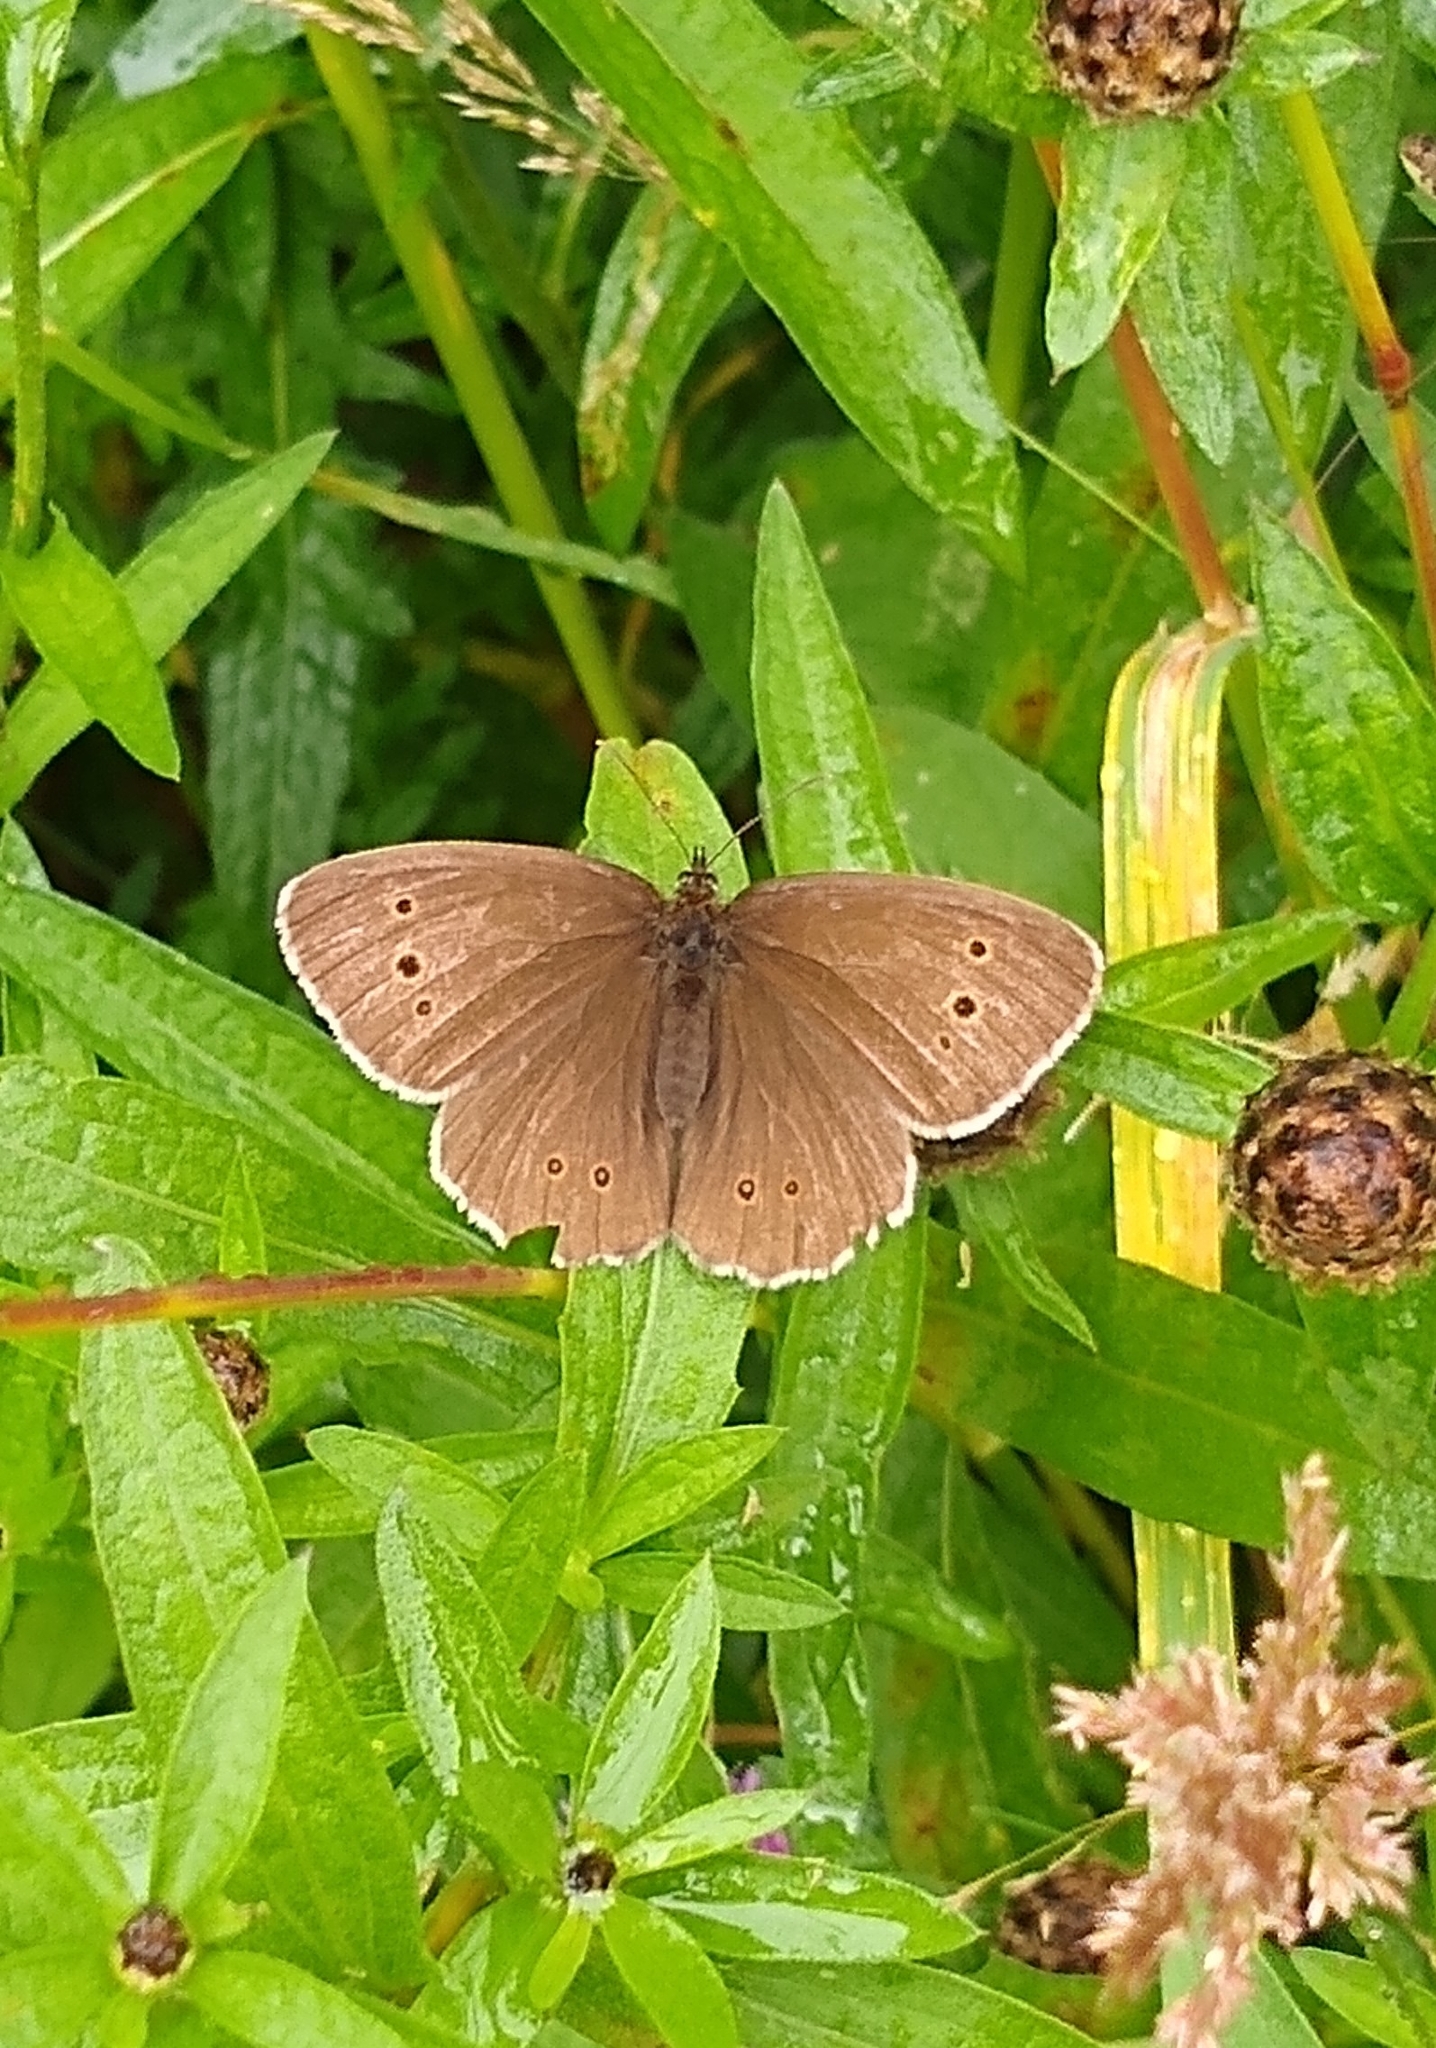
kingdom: Animalia
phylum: Arthropoda
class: Insecta
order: Lepidoptera
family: Nymphalidae
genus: Aphantopus
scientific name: Aphantopus hyperantus
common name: Ringlet
